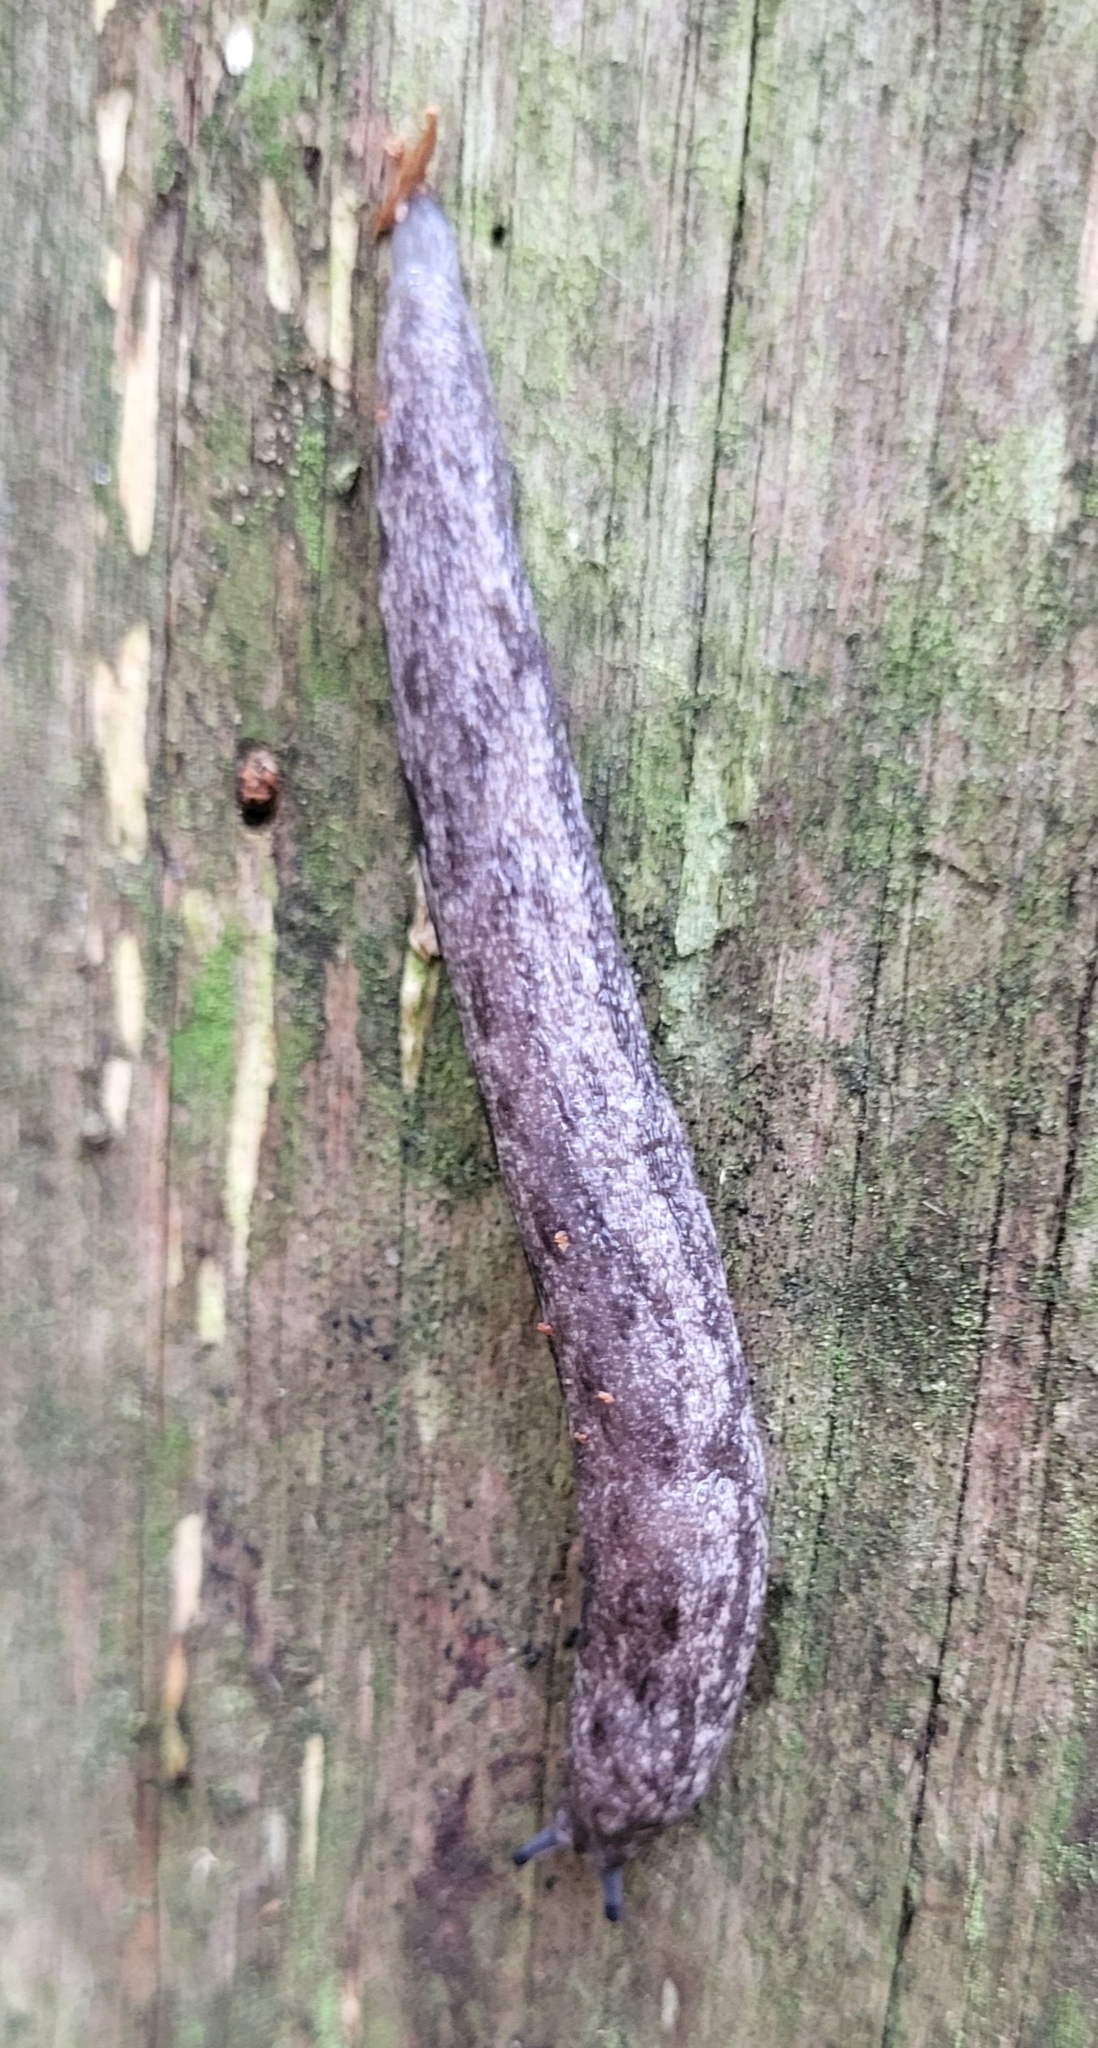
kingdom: Animalia
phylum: Mollusca
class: Gastropoda
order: Stylommatophora
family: Philomycidae
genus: Megapallifera
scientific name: Megapallifera mutabilis
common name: Changeable mantleslug
